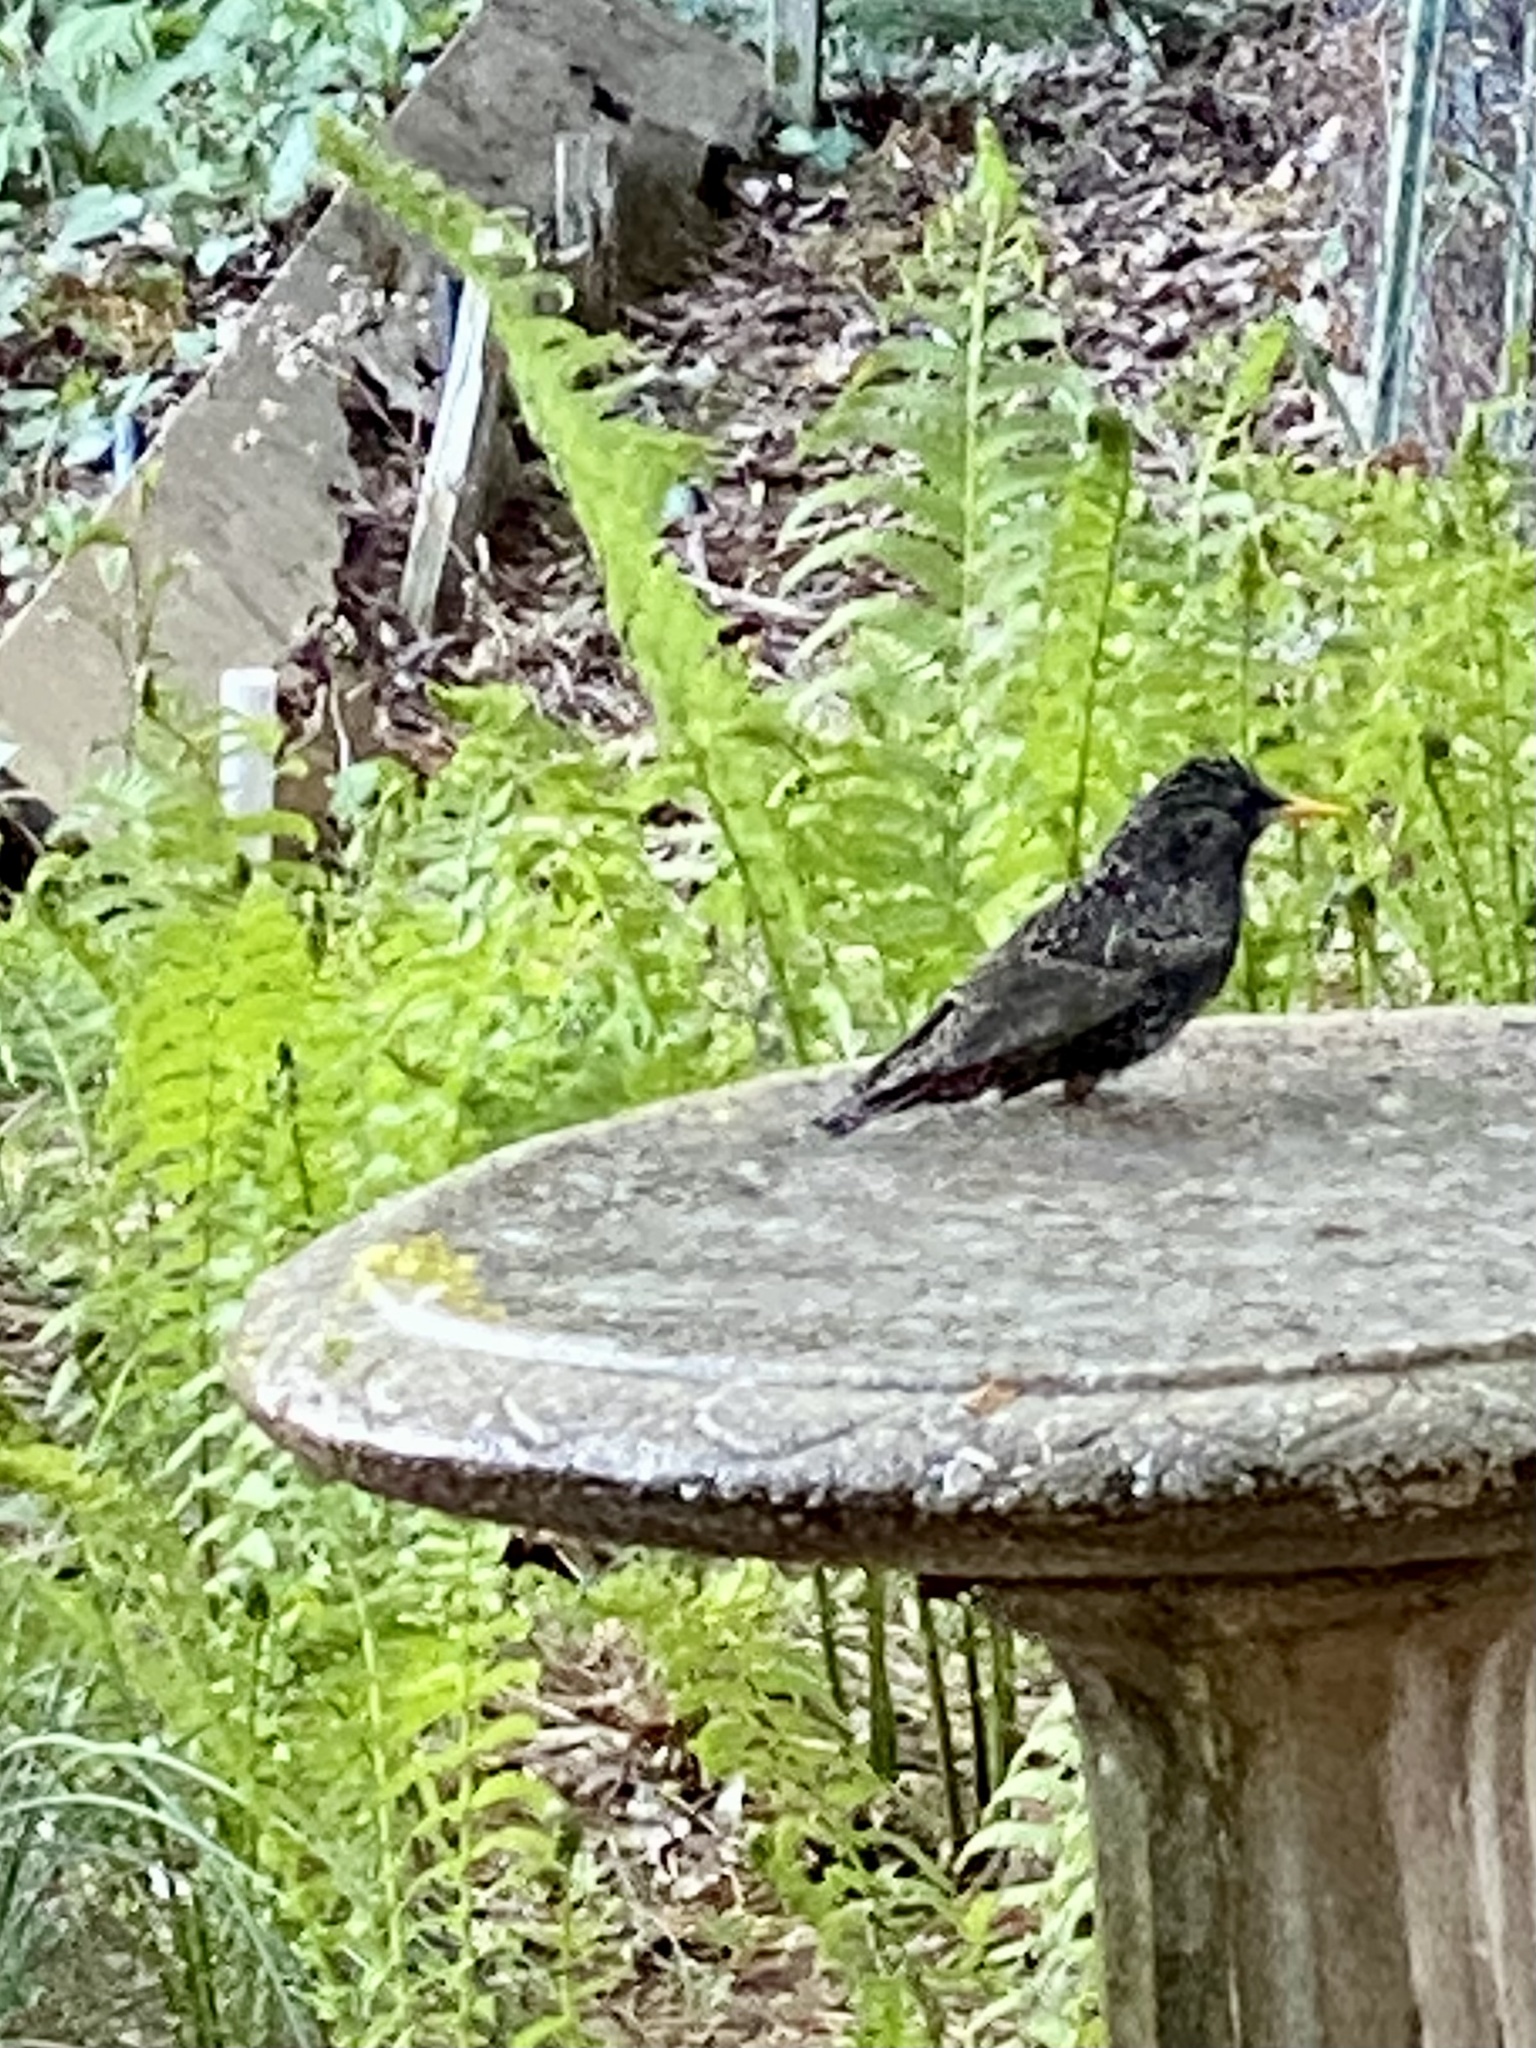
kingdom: Animalia
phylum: Chordata
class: Aves
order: Passeriformes
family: Sturnidae
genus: Sturnus
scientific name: Sturnus vulgaris
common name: Common starling
